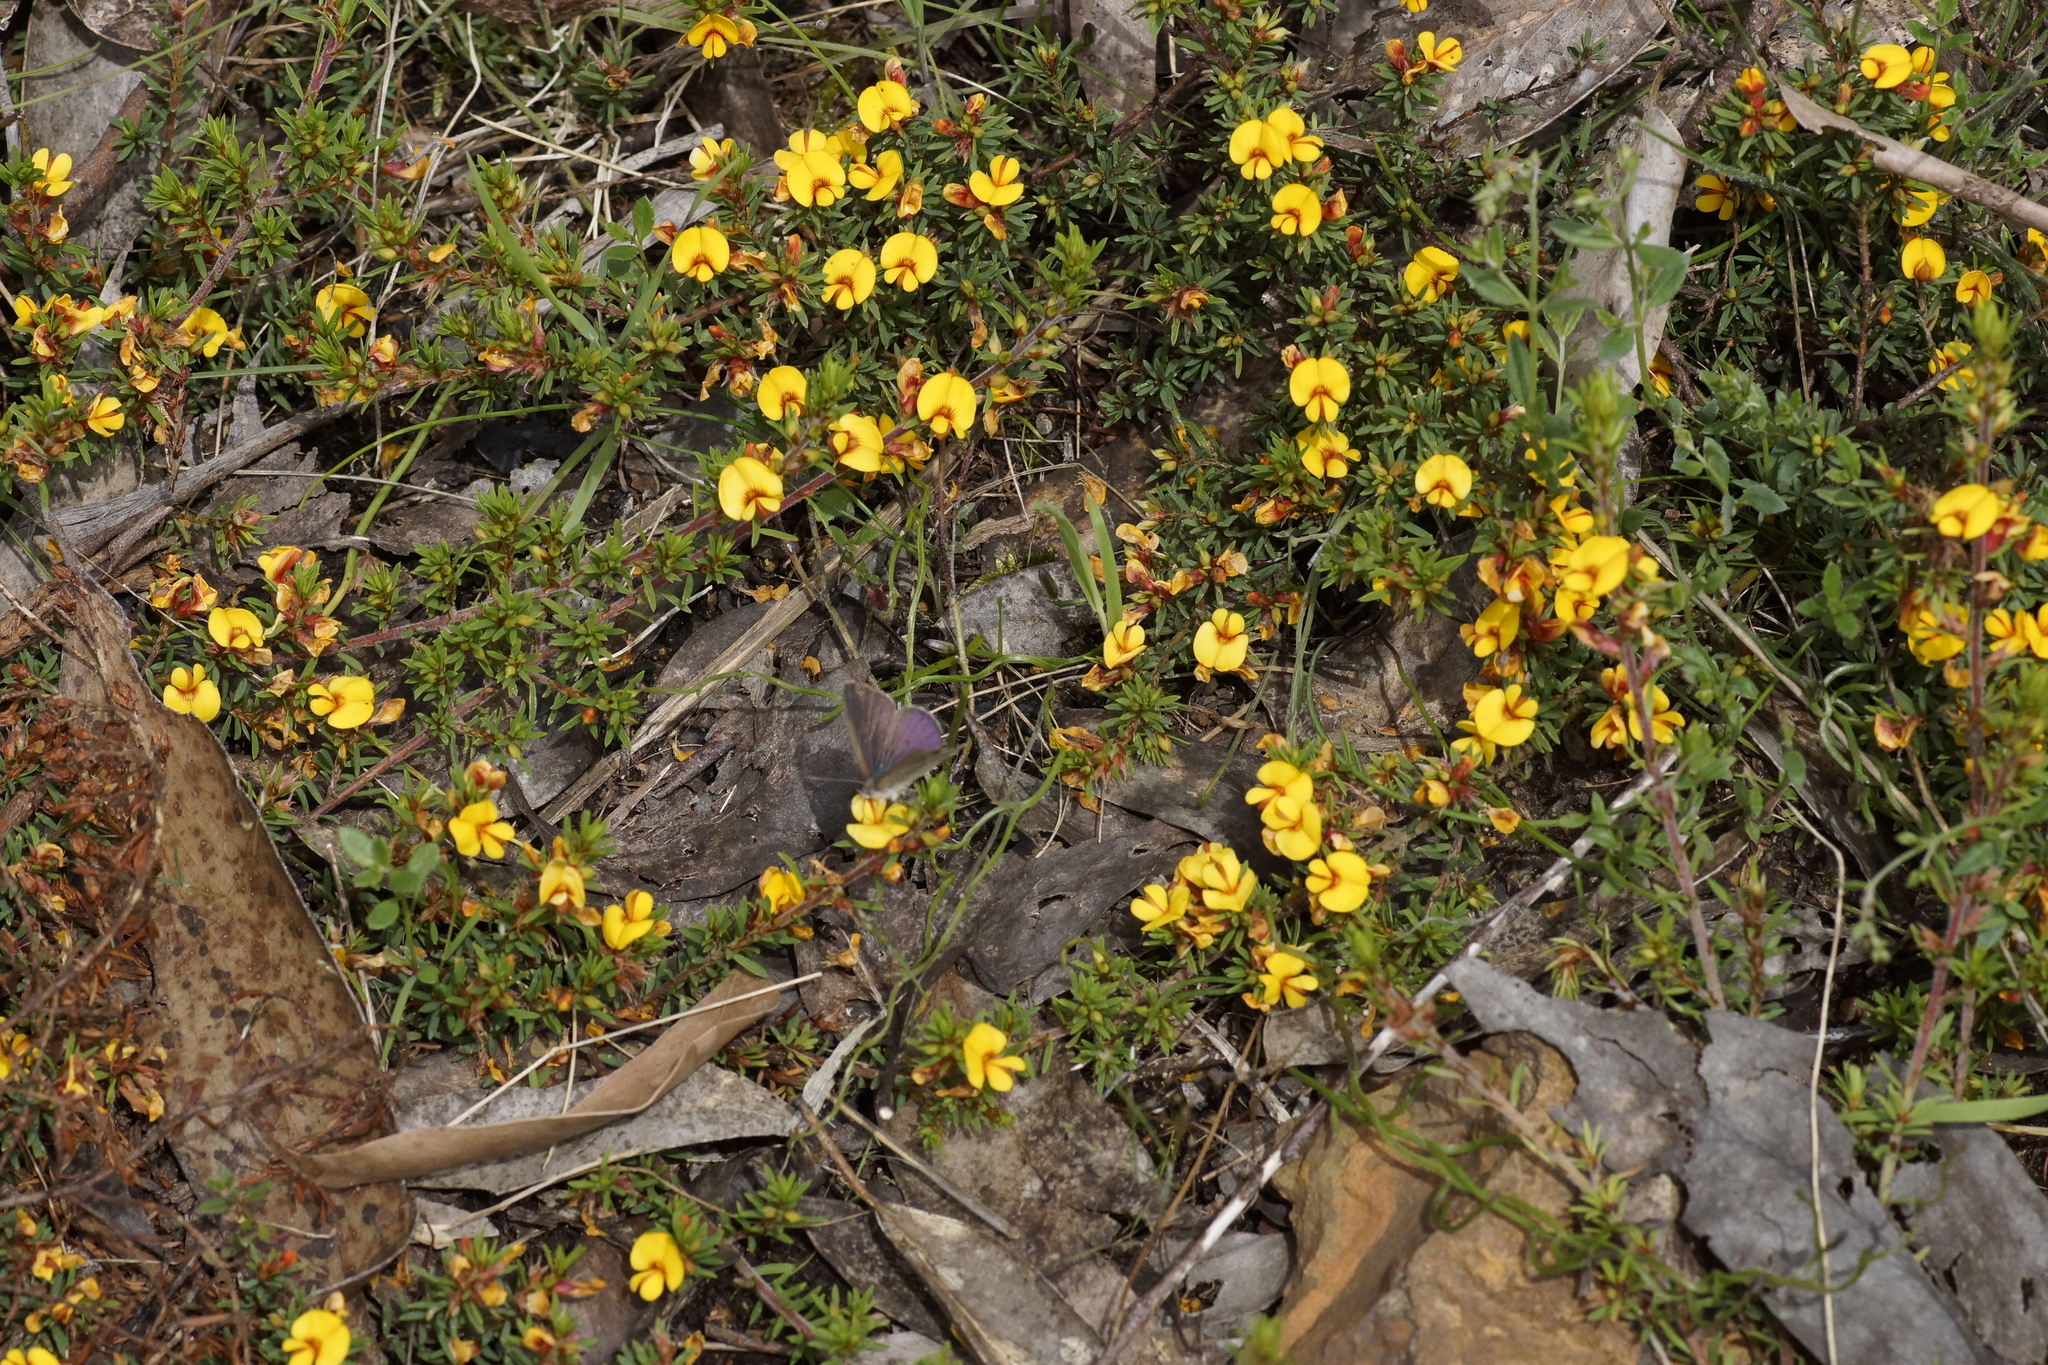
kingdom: Plantae
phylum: Tracheophyta
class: Magnoliopsida
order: Fabales
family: Fabaceae
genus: Pultenaea
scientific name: Pultenaea pedunculata
